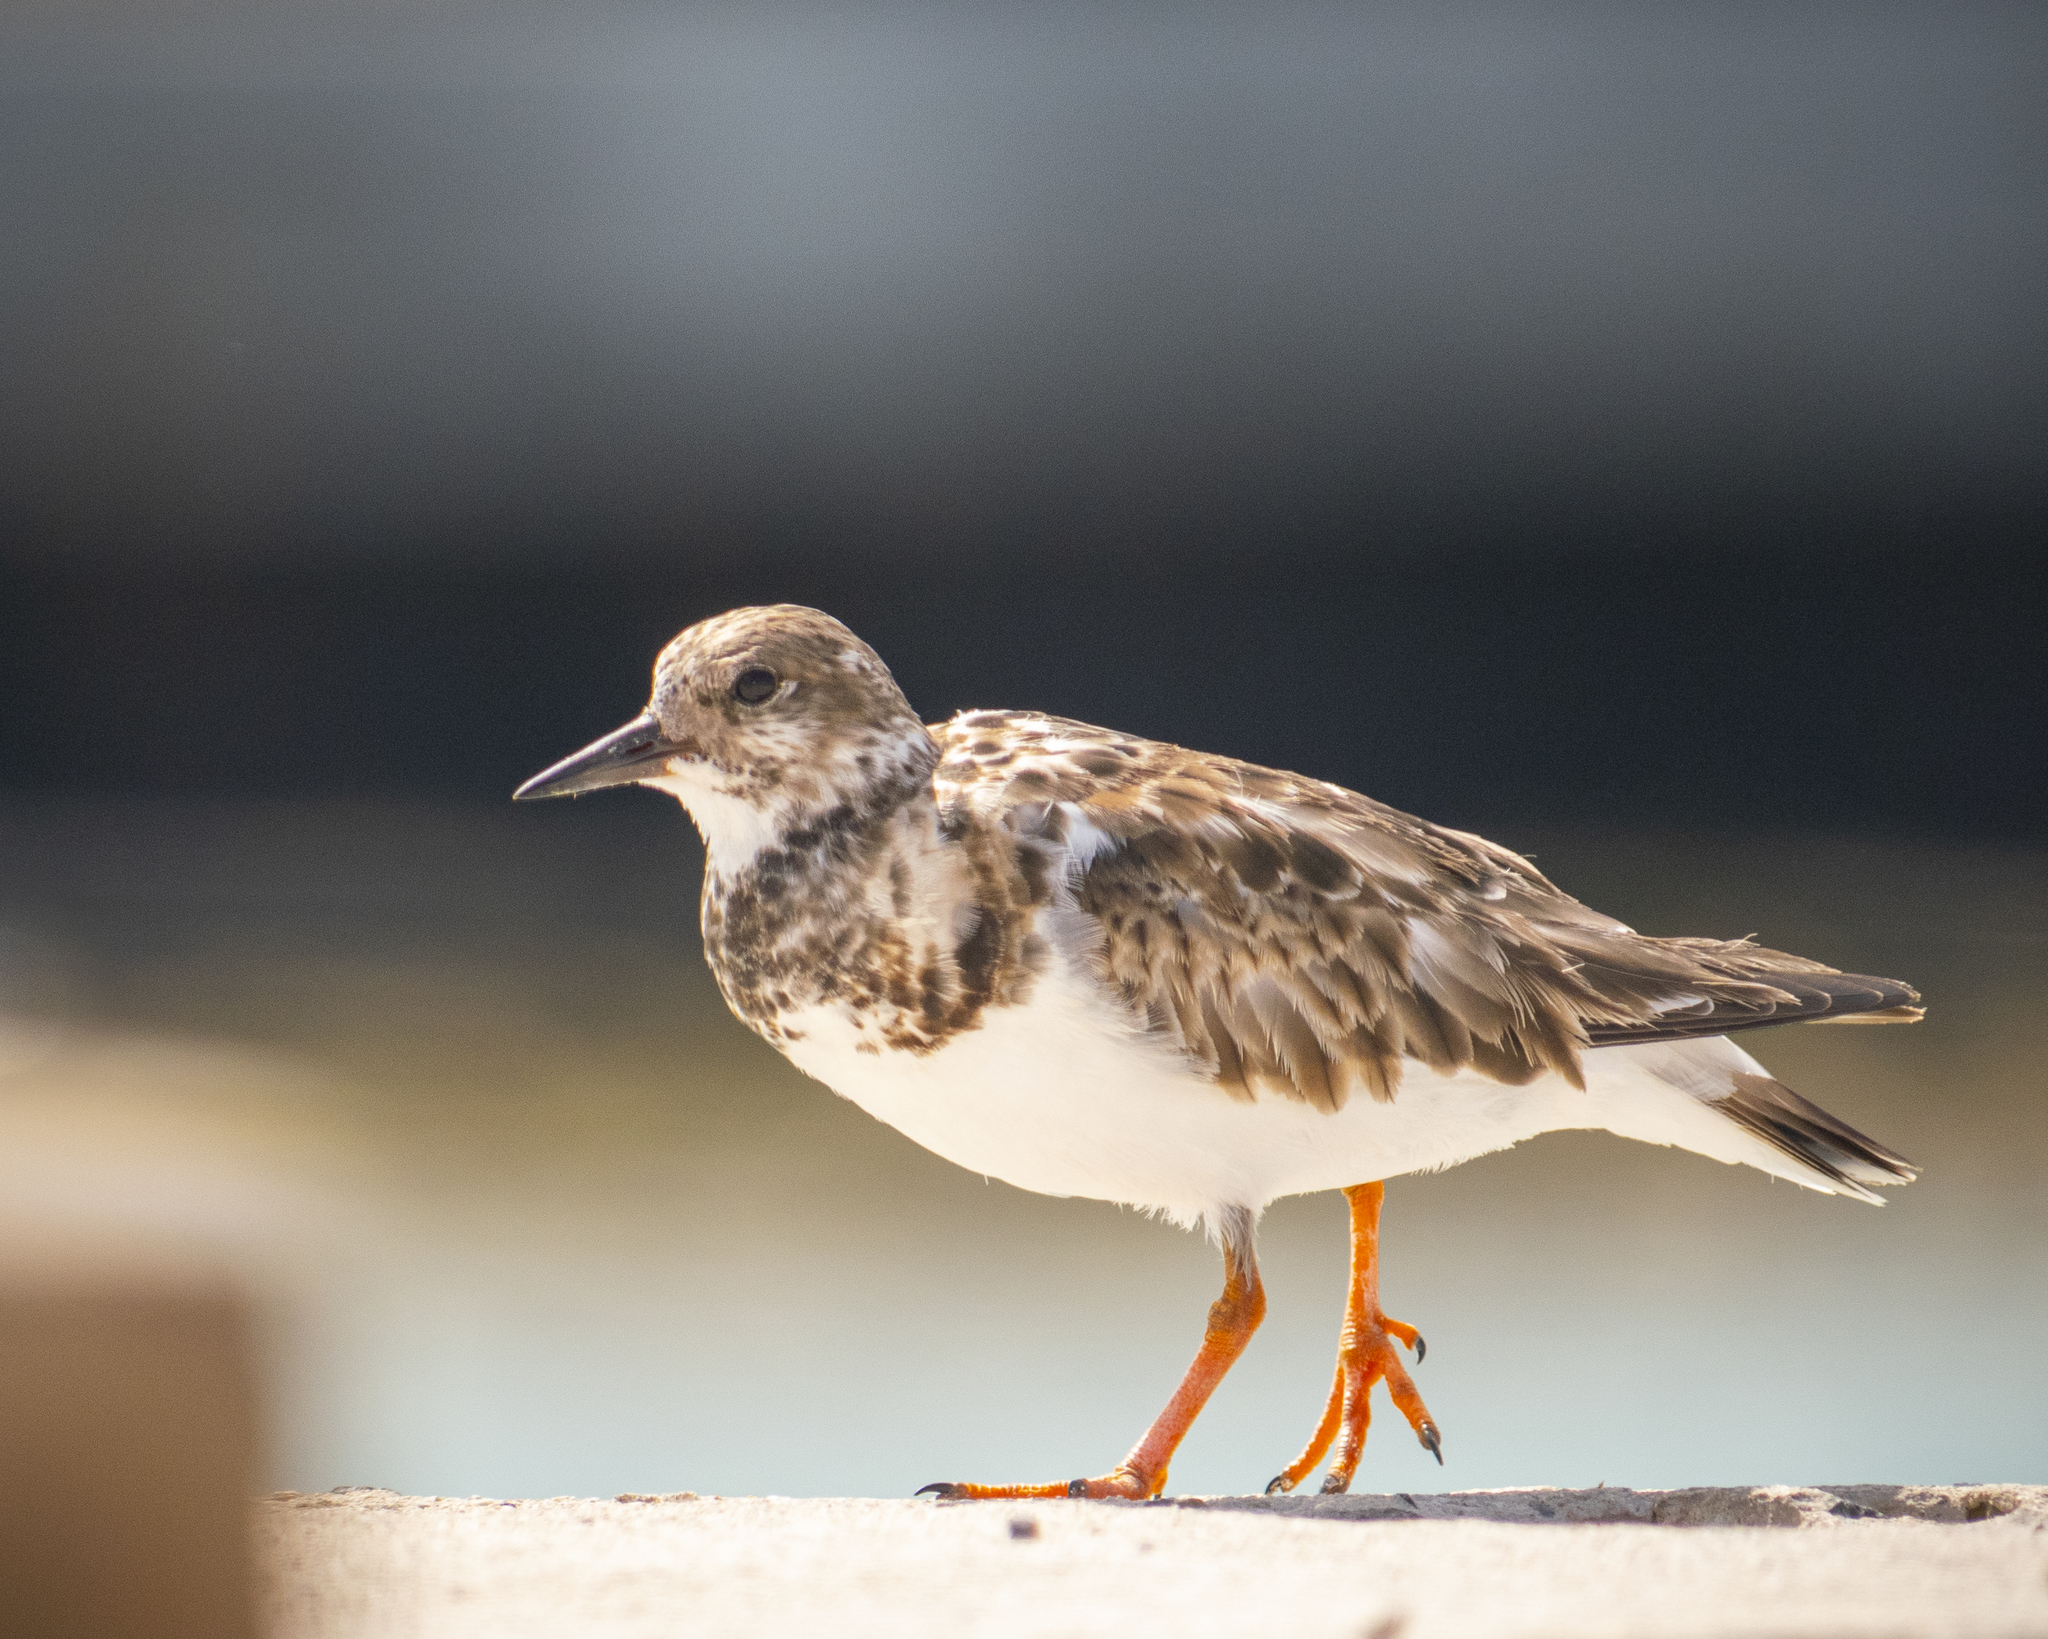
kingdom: Animalia
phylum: Chordata
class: Aves
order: Charadriiformes
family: Scolopacidae
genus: Arenaria
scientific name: Arenaria interpres
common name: Ruddy turnstone
